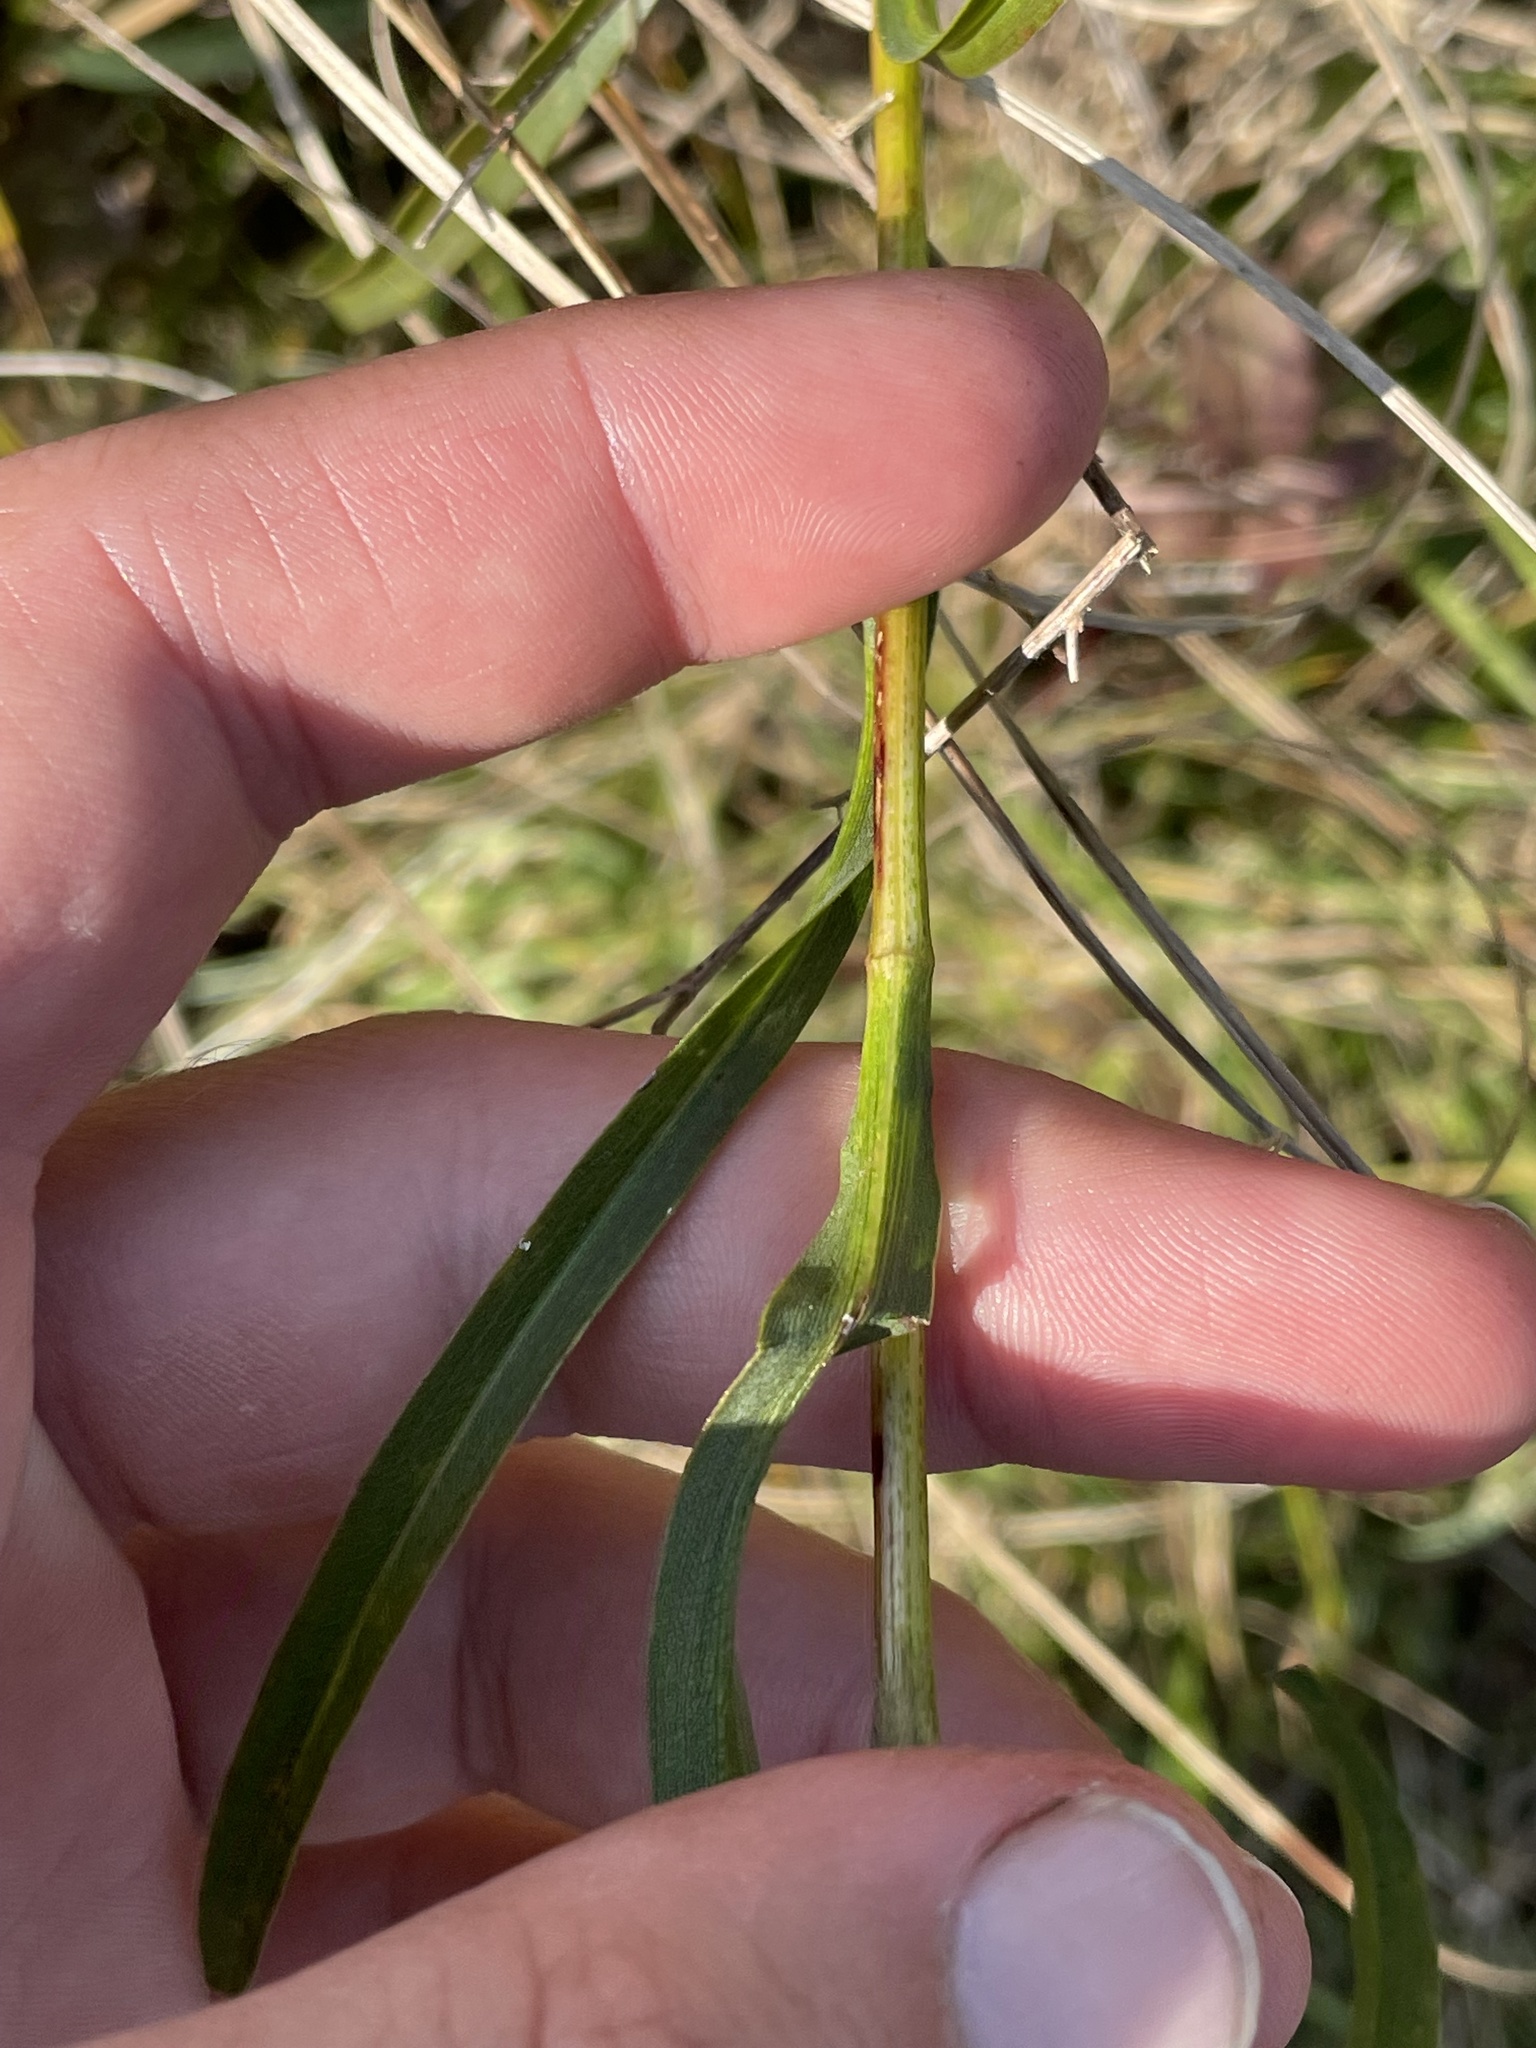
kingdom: Plantae
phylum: Tracheophyta
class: Magnoliopsida
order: Asterales
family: Asteraceae
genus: Solidago
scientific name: Solidago riddellii
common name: Riddell's goldenrod
